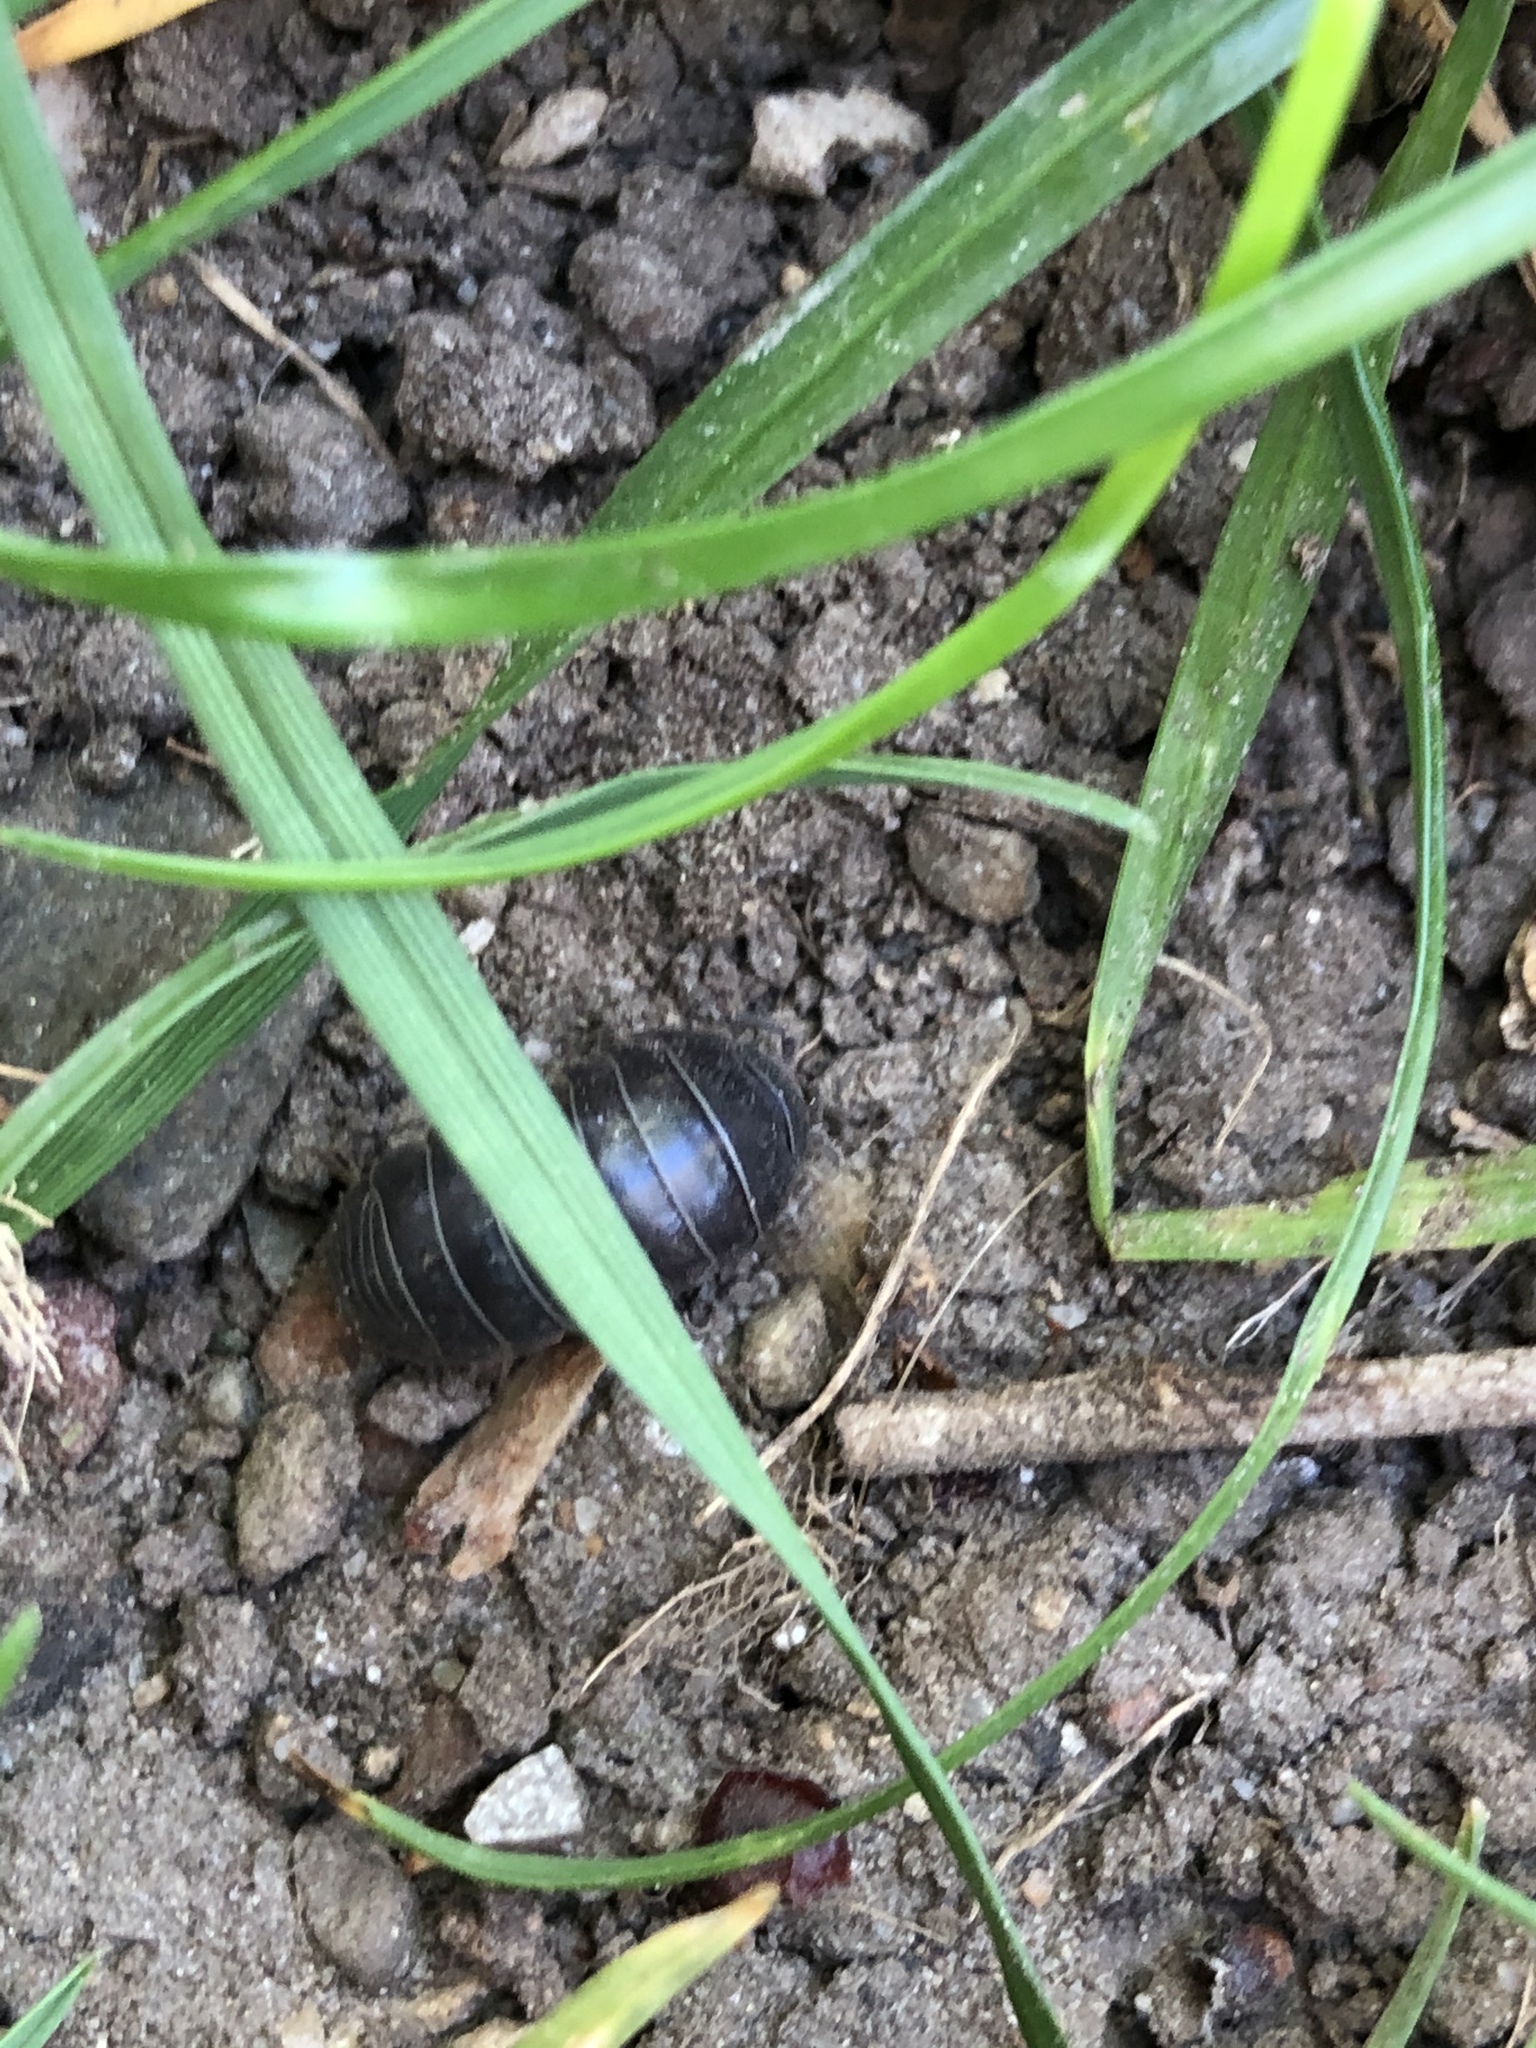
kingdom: Animalia
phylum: Arthropoda
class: Malacostraca
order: Isopoda
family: Armadillidiidae
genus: Armadillidium
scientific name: Armadillidium vulgare
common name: Common pill woodlouse
